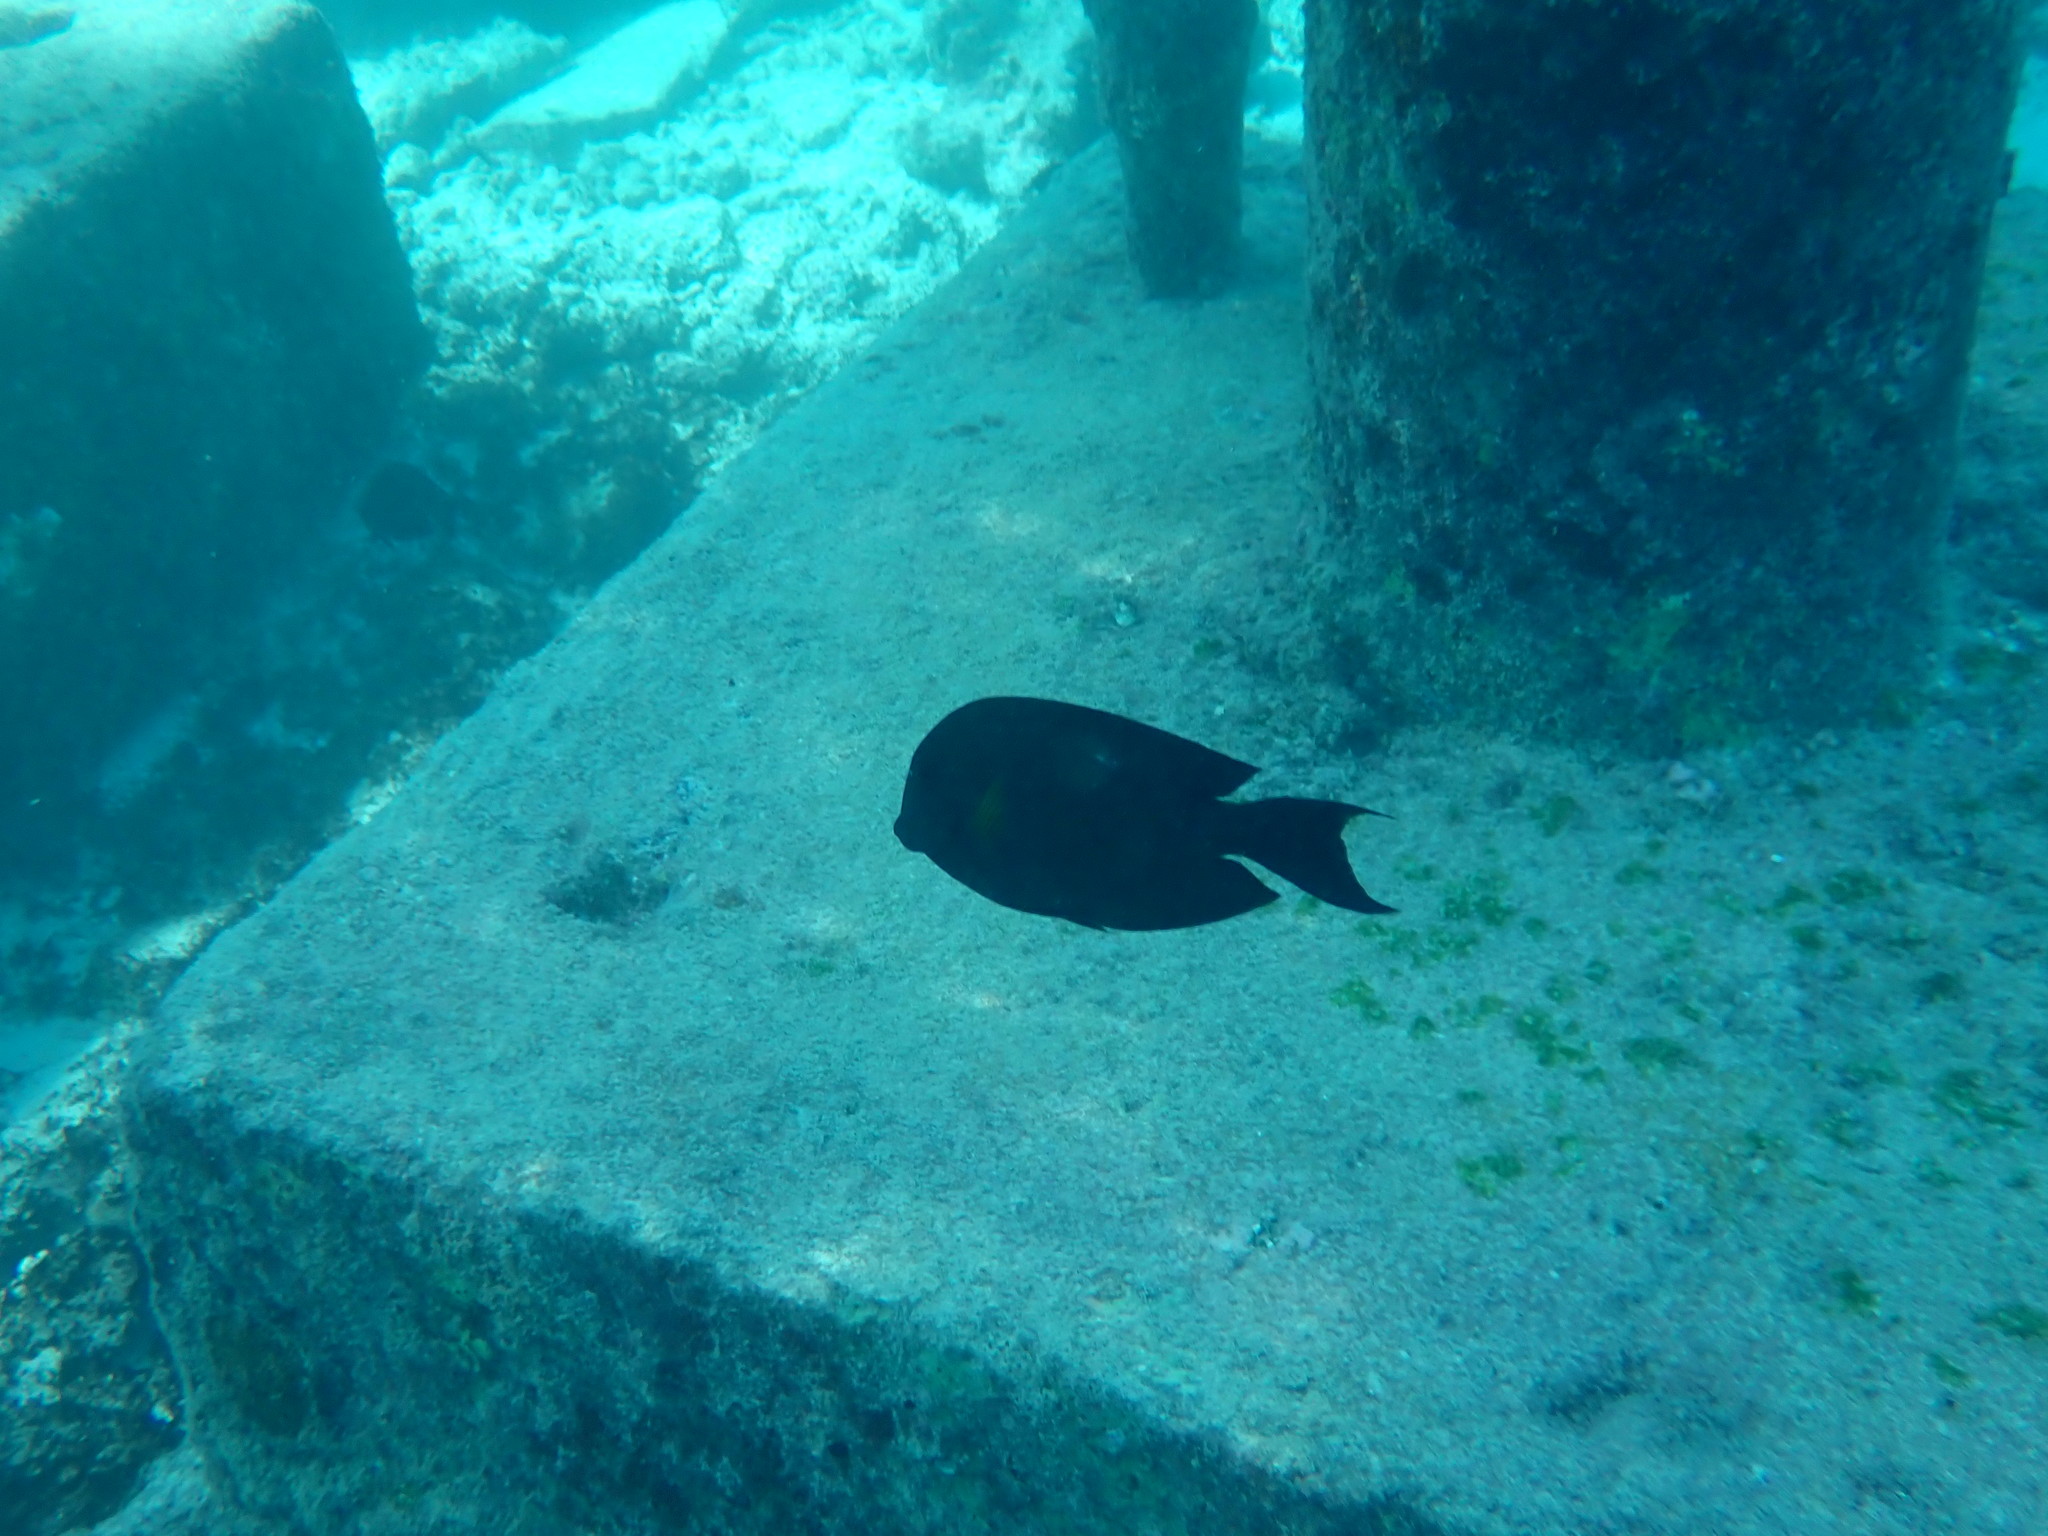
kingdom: Animalia
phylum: Chordata
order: Perciformes
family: Acanthuridae
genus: Ctenochaetus
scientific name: Ctenochaetus striatus
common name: Bristle-toothed surgeonfish
